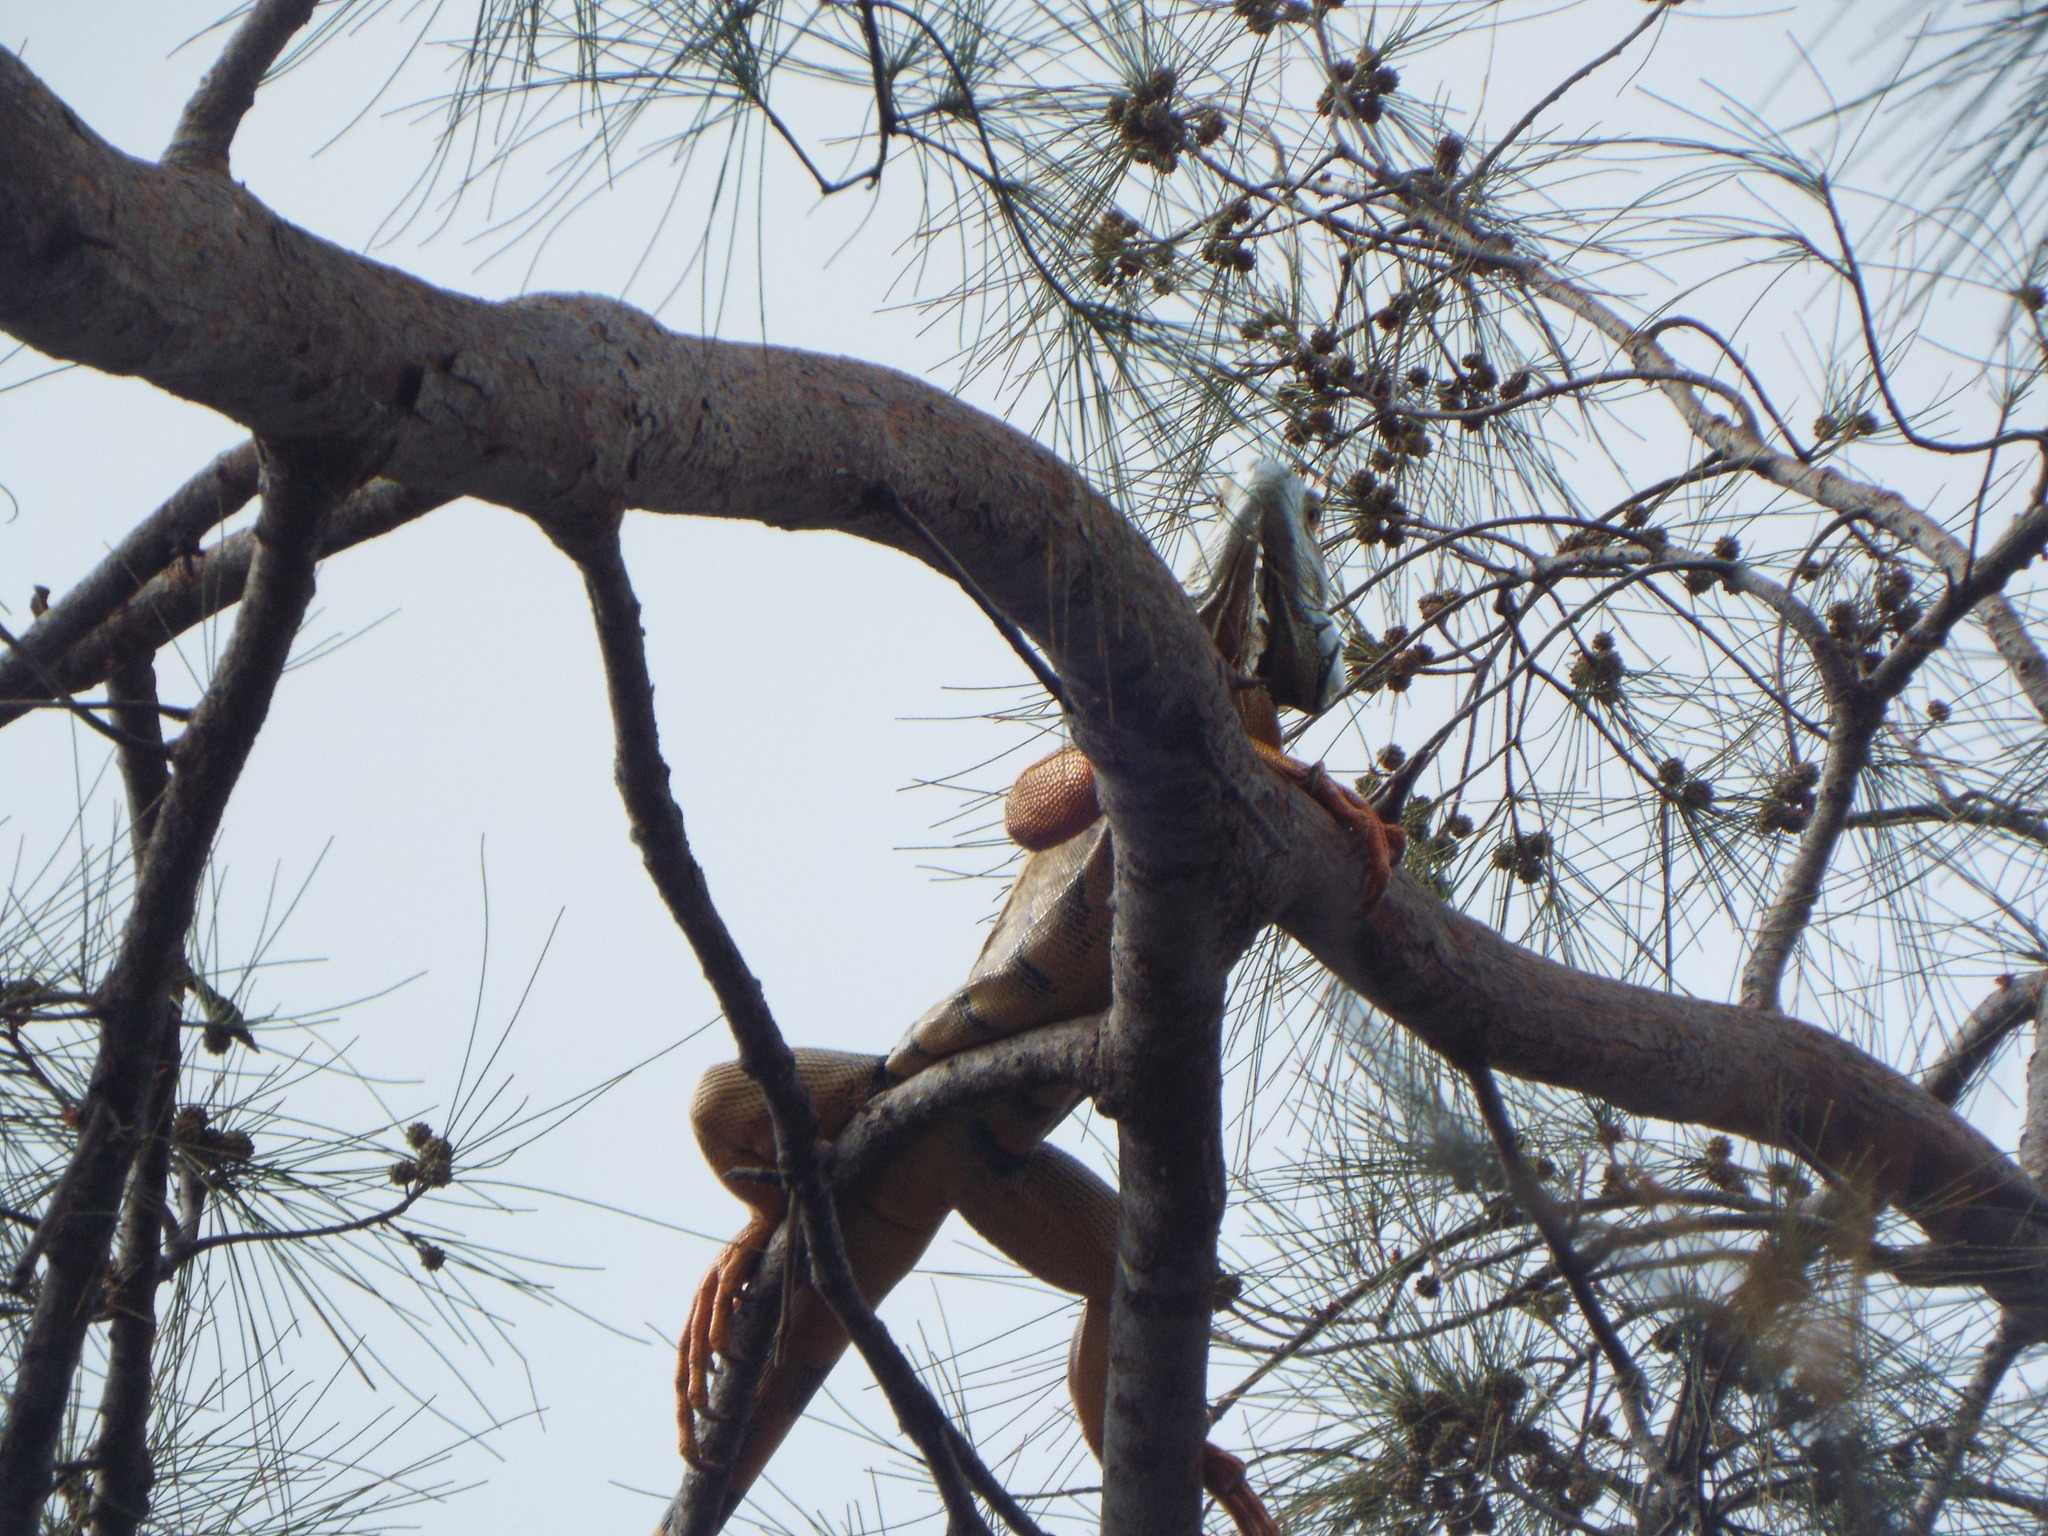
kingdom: Animalia
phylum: Chordata
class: Squamata
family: Iguanidae
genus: Iguana
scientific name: Iguana iguana
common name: Green iguana
